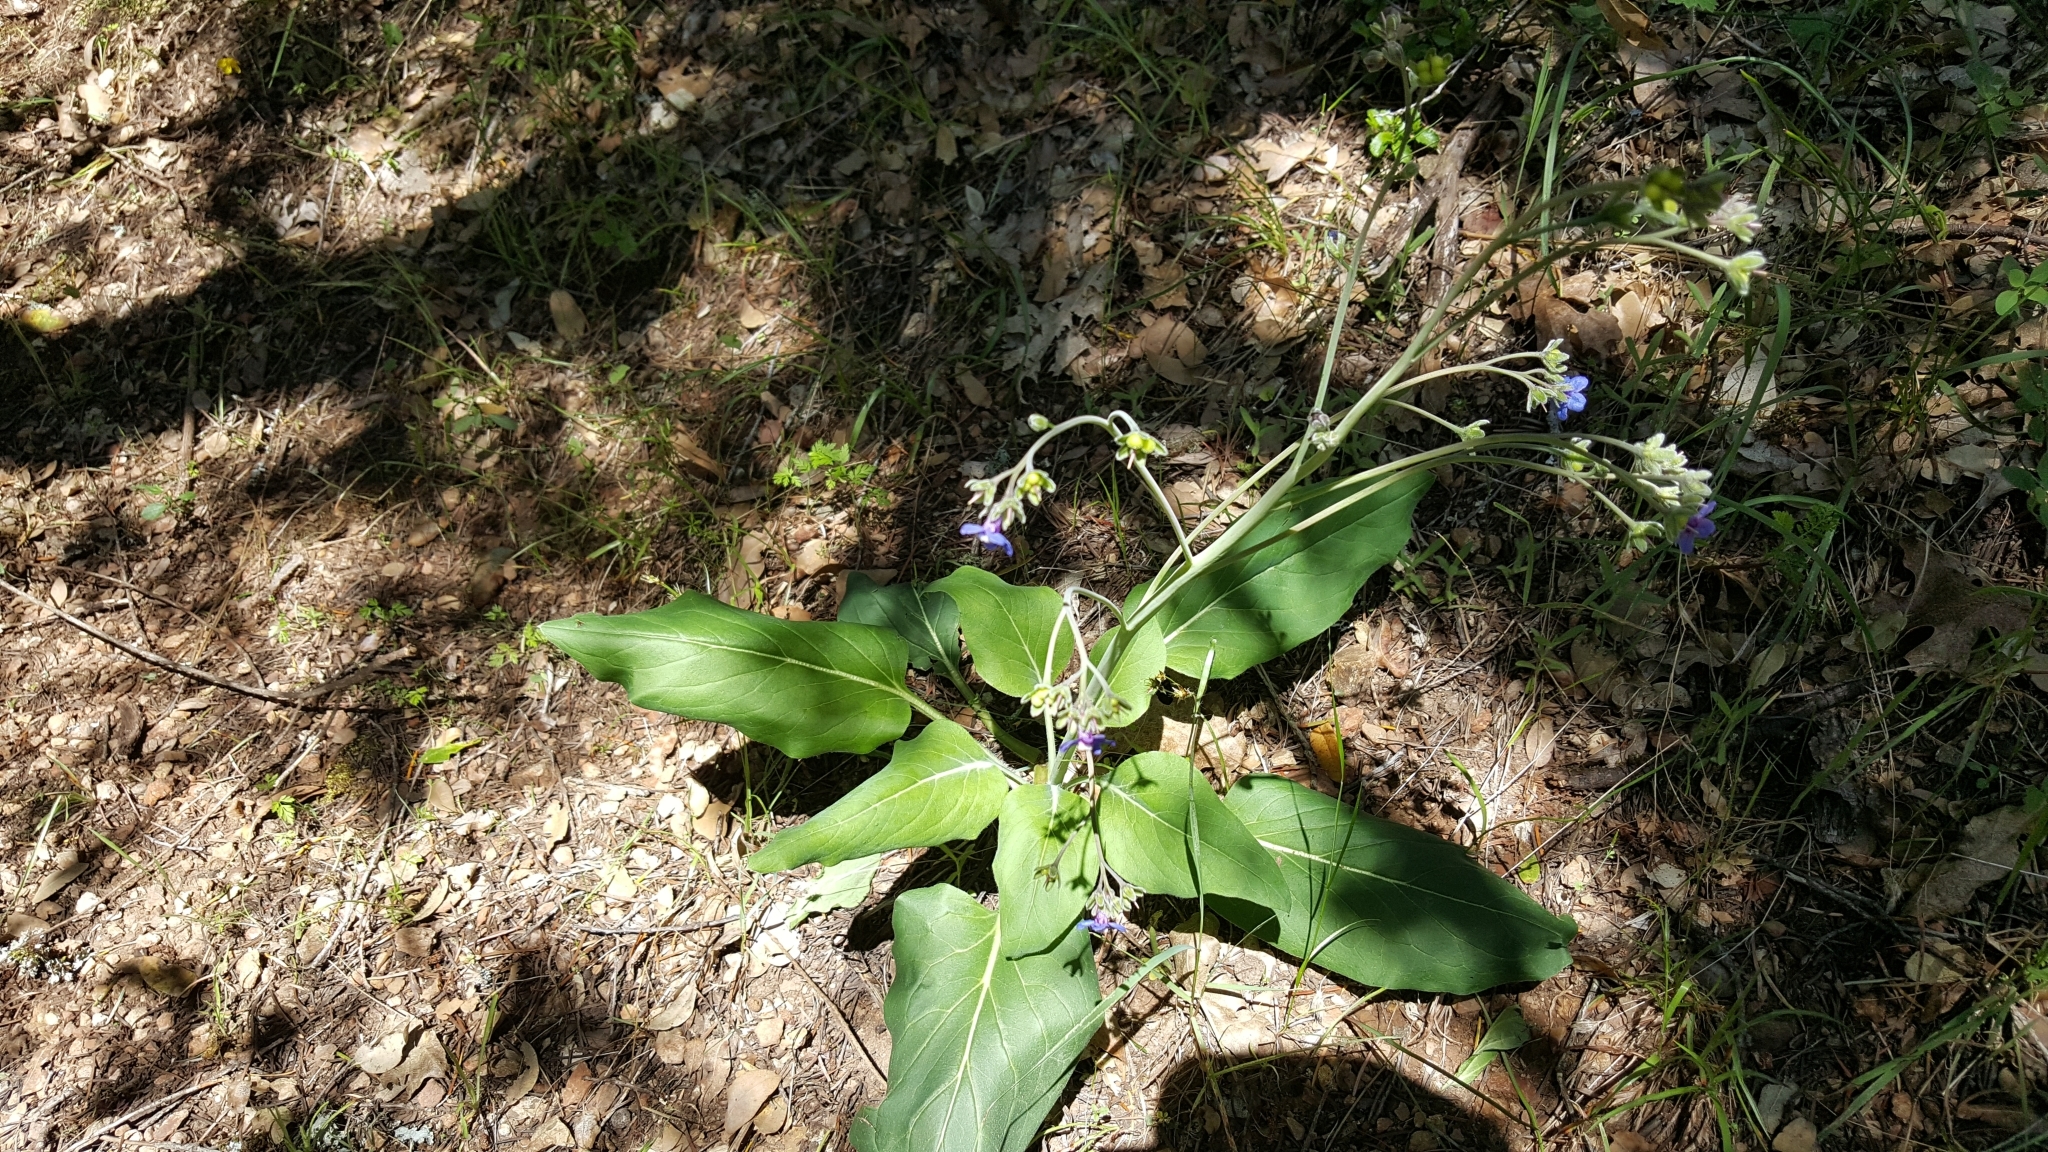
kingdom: Plantae
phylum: Tracheophyta
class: Magnoliopsida
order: Boraginales
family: Boraginaceae
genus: Adelinia
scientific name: Adelinia grande
